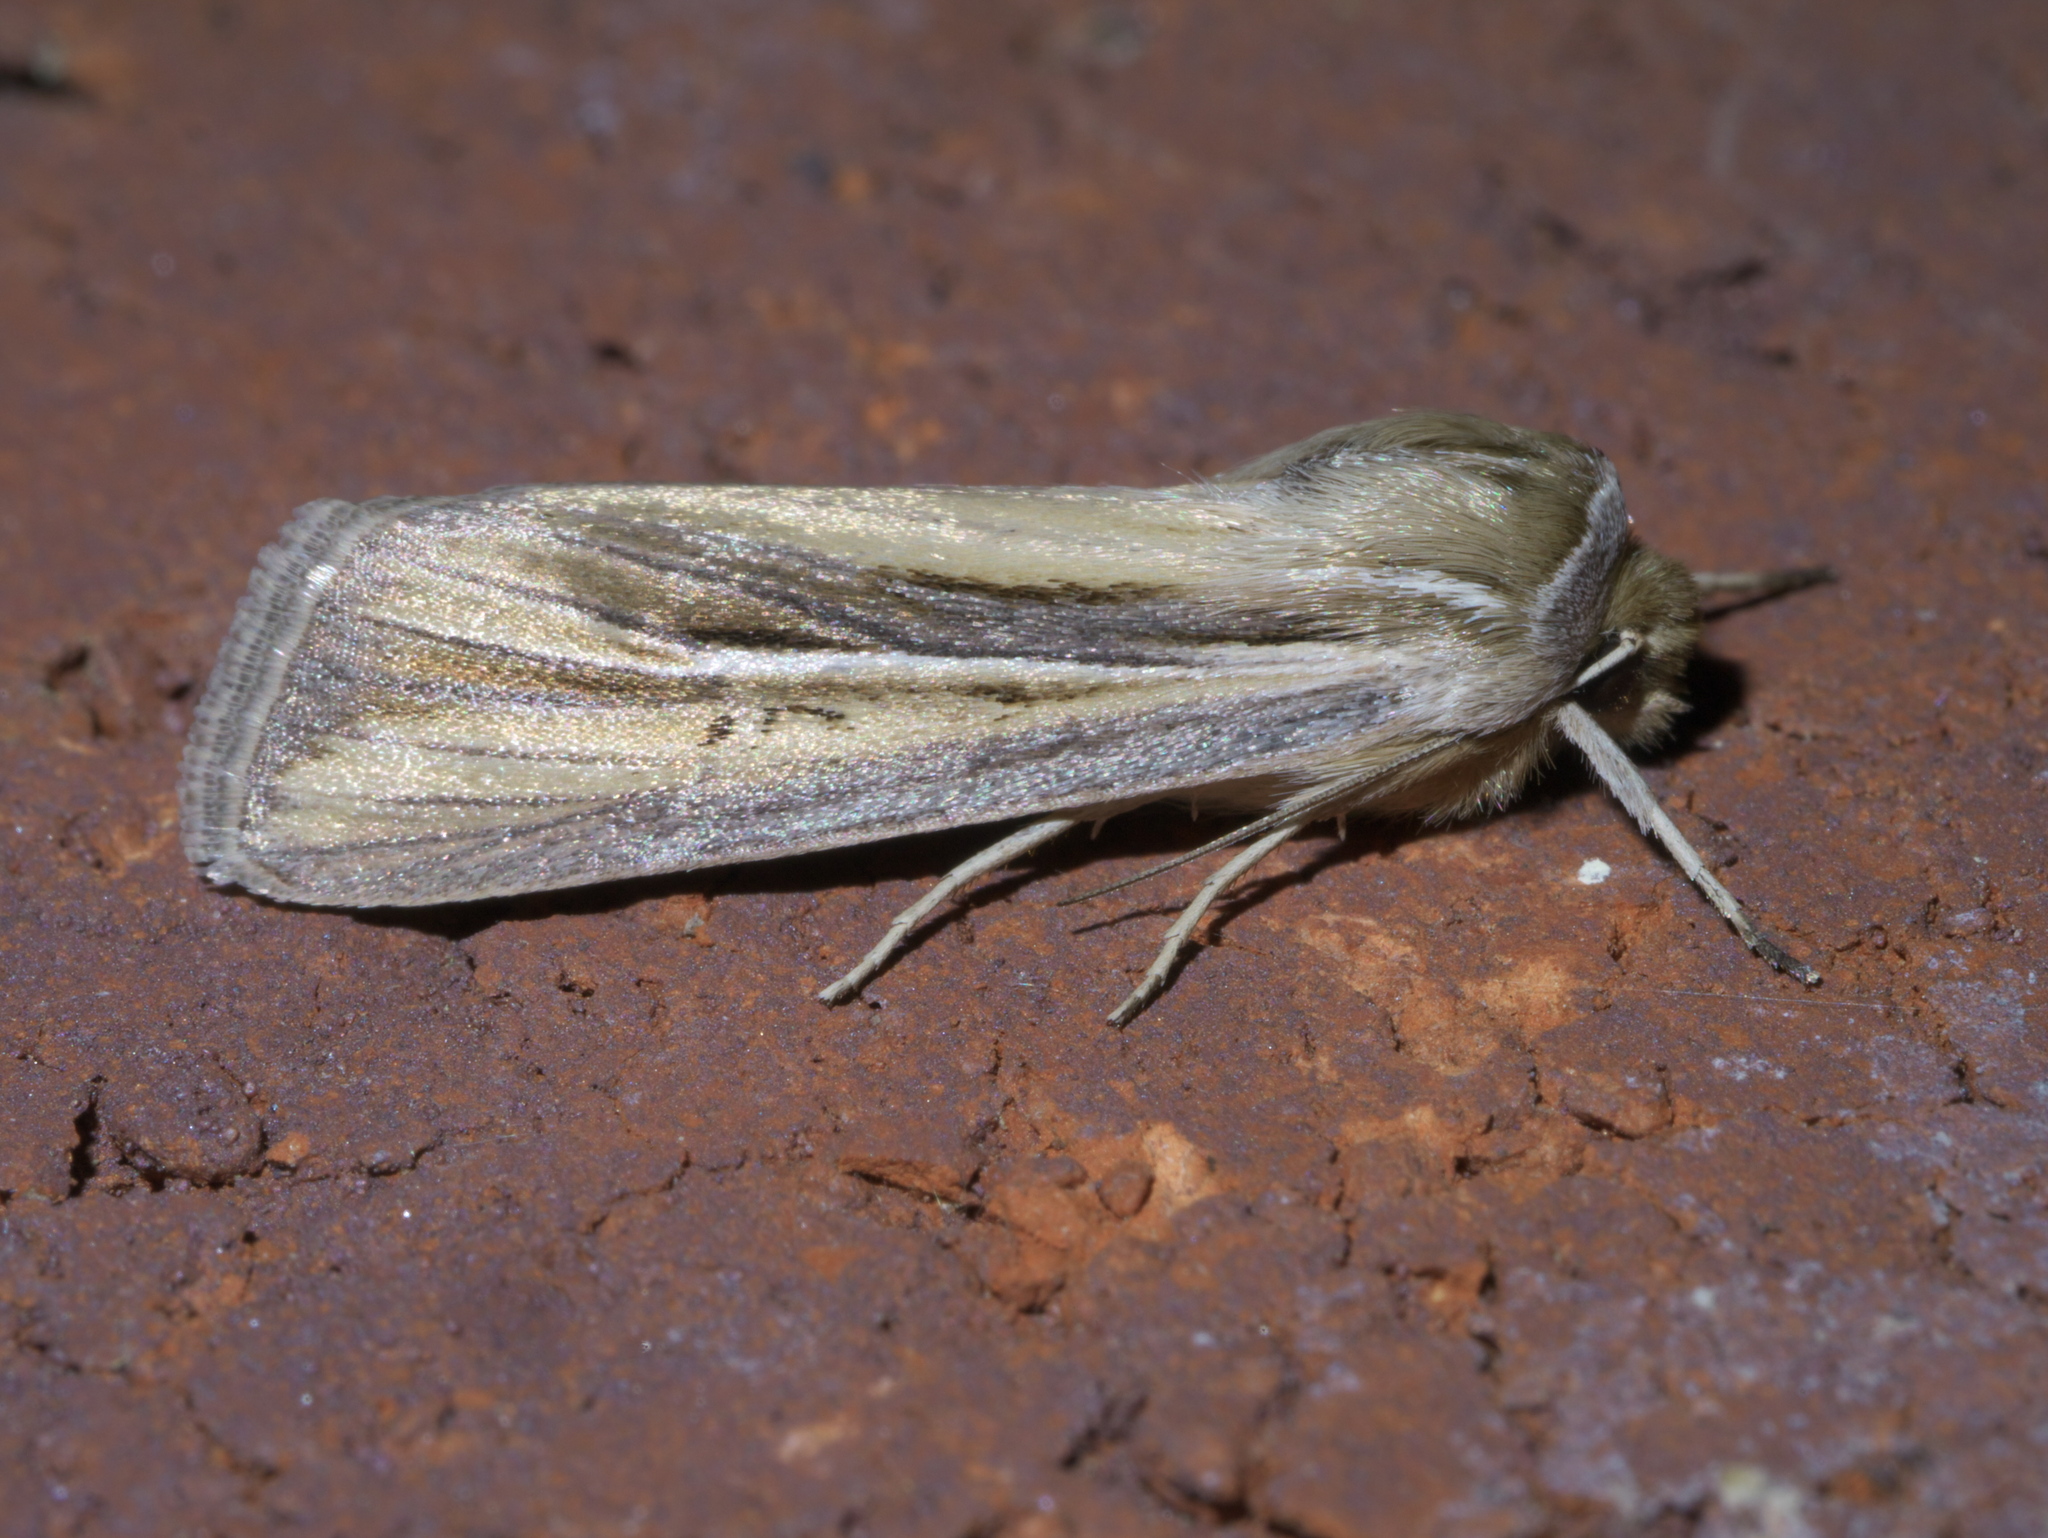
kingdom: Animalia
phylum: Arthropoda
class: Insecta
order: Lepidoptera
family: Noctuidae
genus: Dargida
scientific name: Dargida diffusa
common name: Wheat head armyworm
